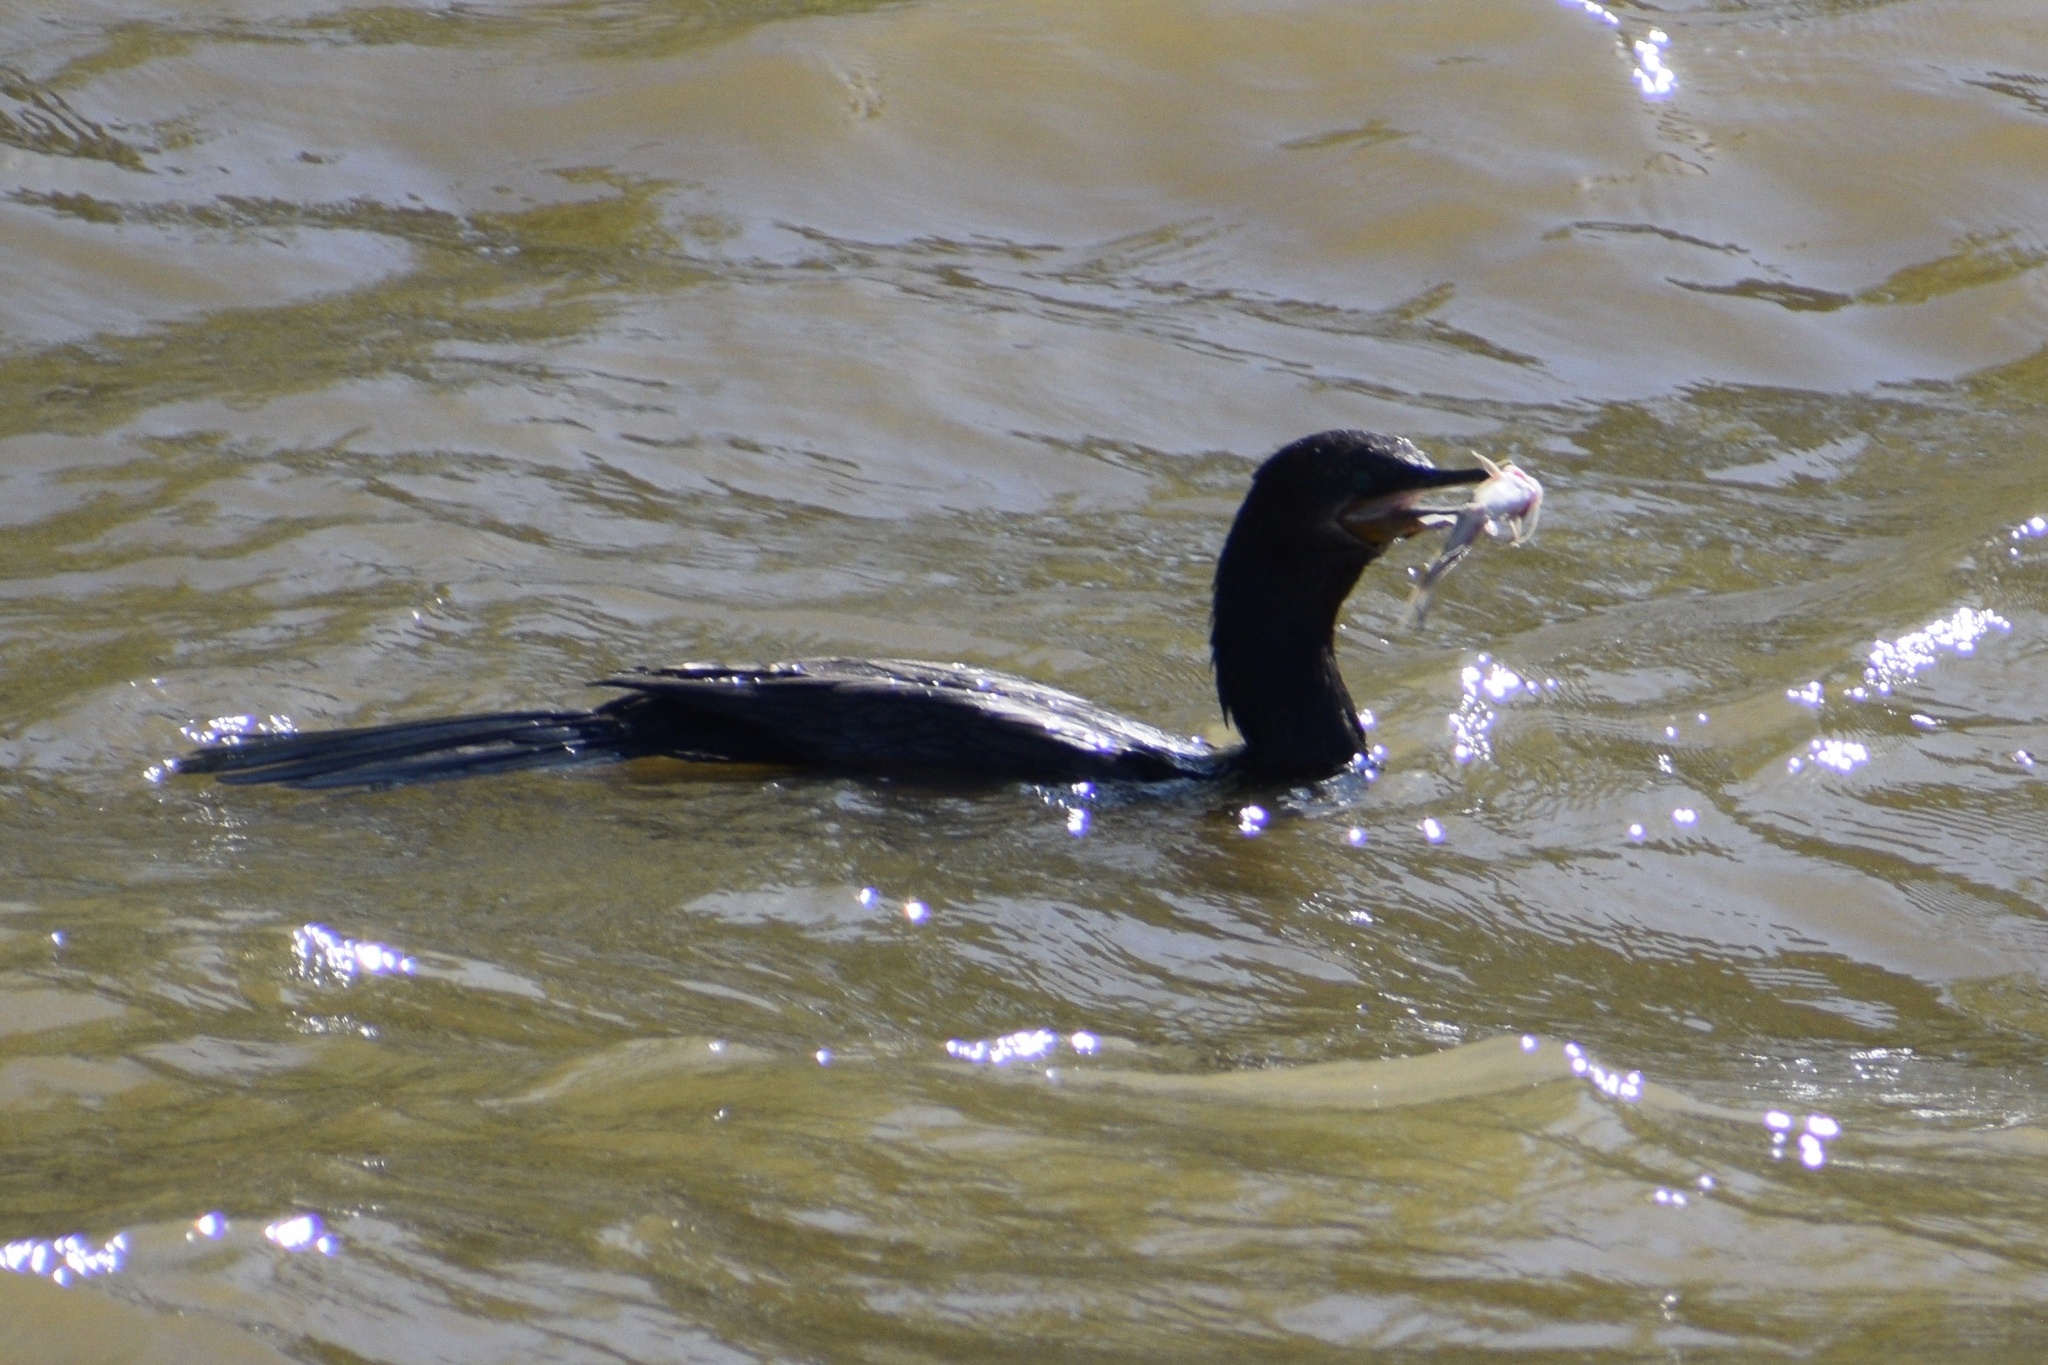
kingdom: Animalia
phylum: Chordata
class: Aves
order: Suliformes
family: Phalacrocoracidae
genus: Phalacrocorax
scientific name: Phalacrocorax brasilianus
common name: Neotropic cormorant
